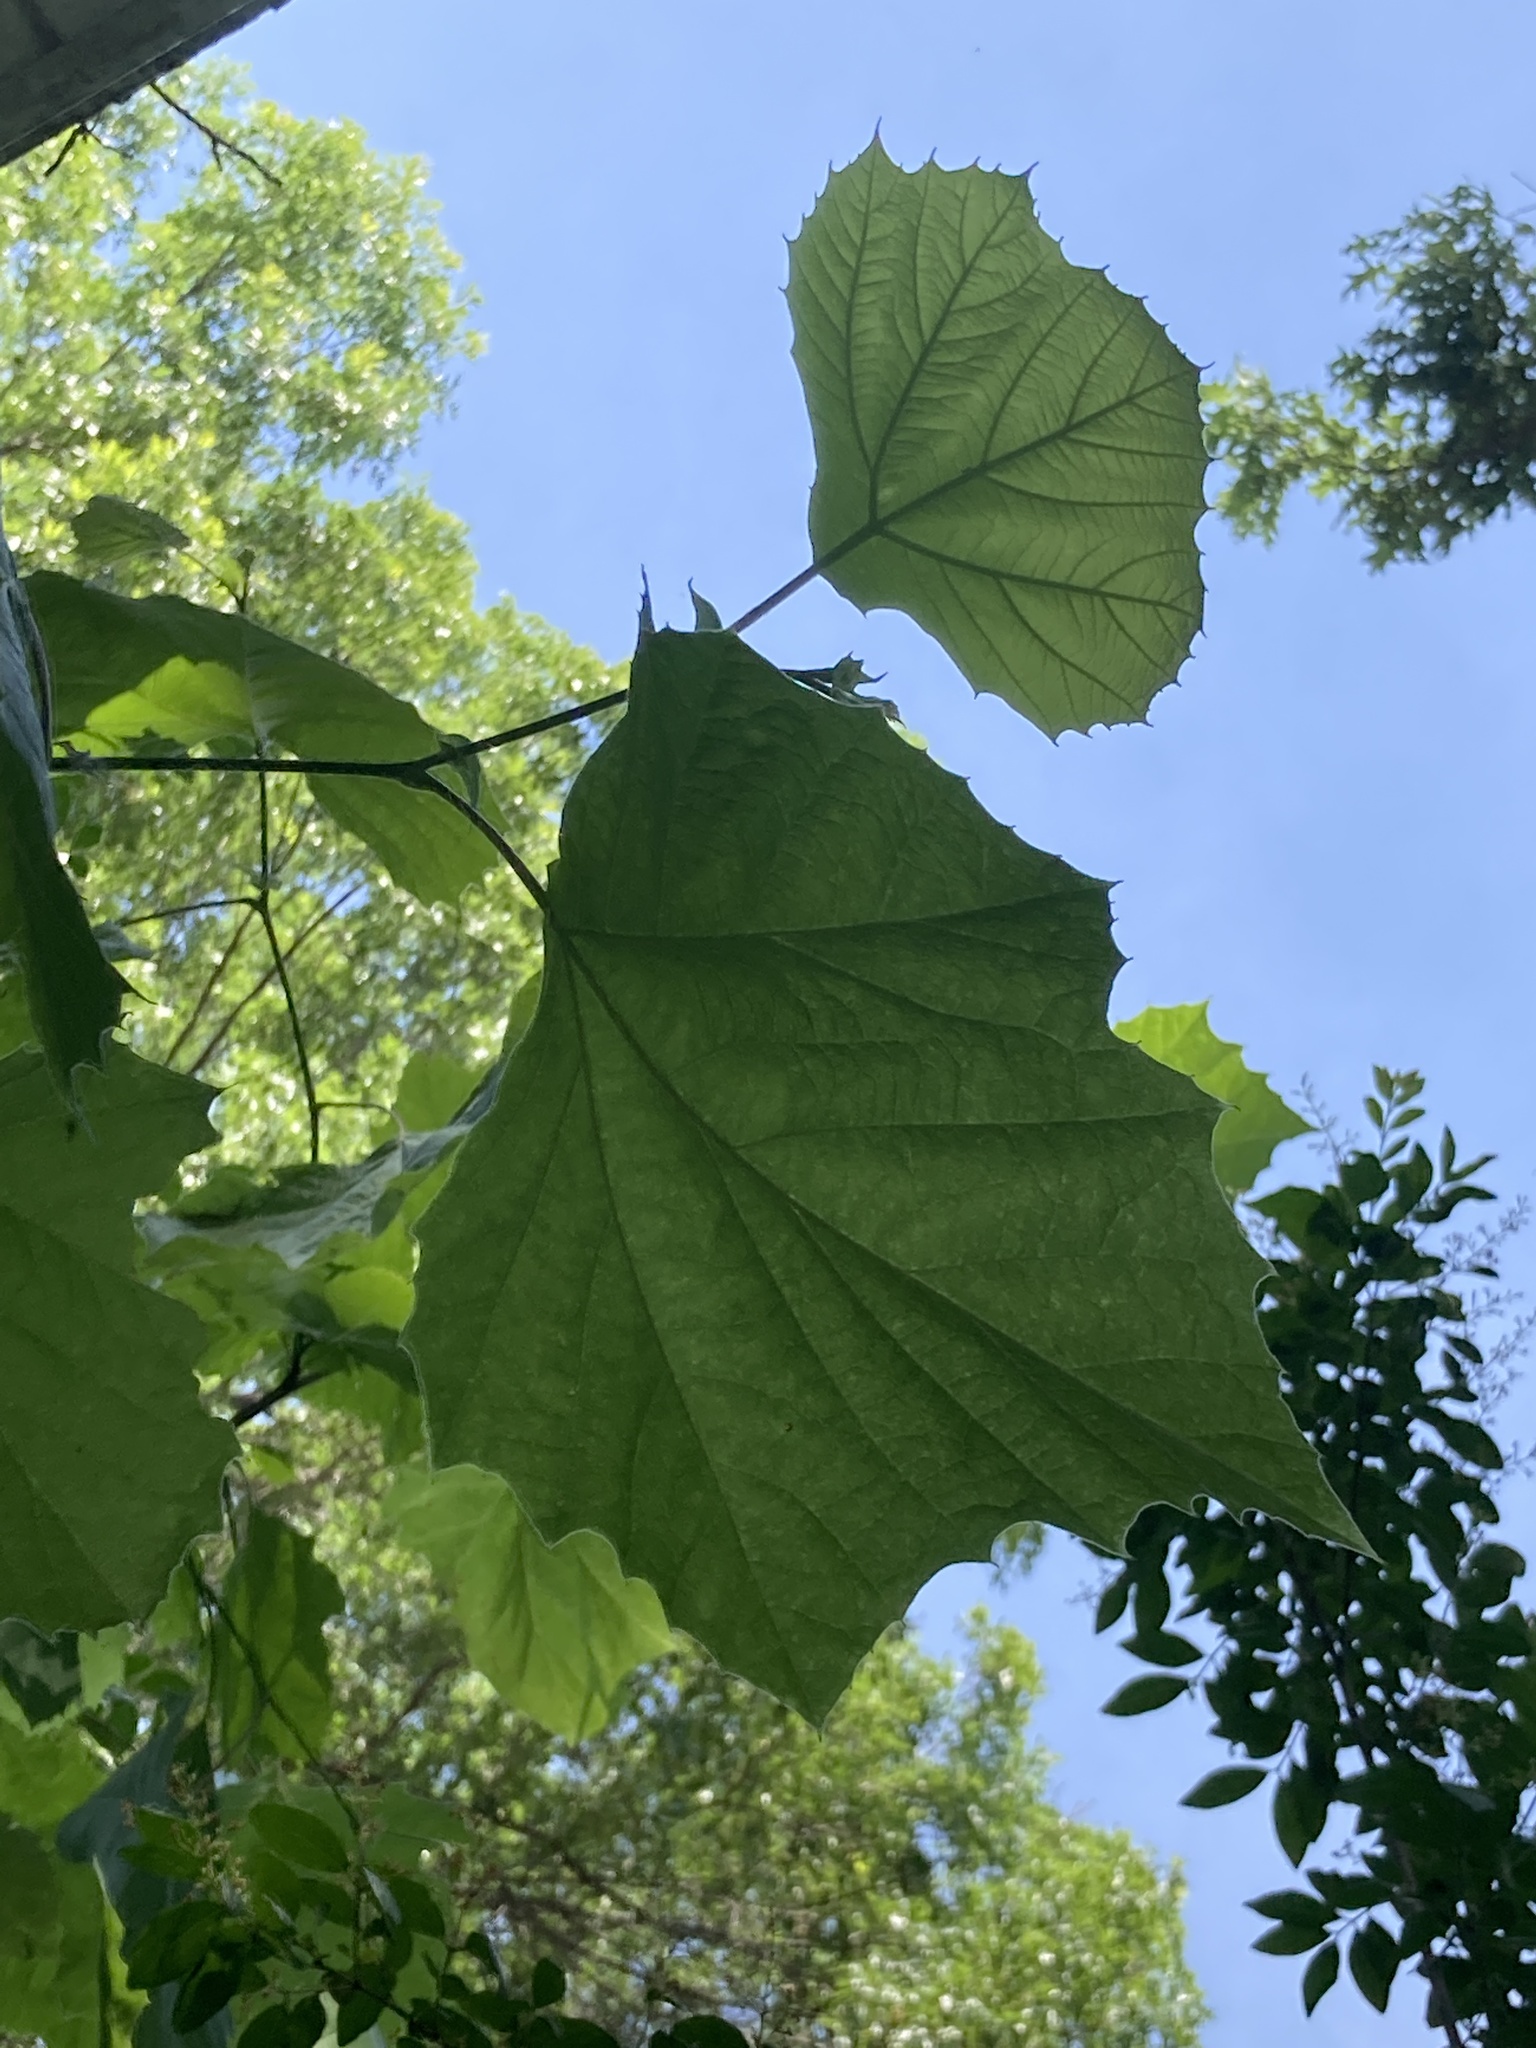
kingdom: Plantae
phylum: Tracheophyta
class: Magnoliopsida
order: Proteales
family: Platanaceae
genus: Platanus
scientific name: Platanus occidentalis
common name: American sycamore
